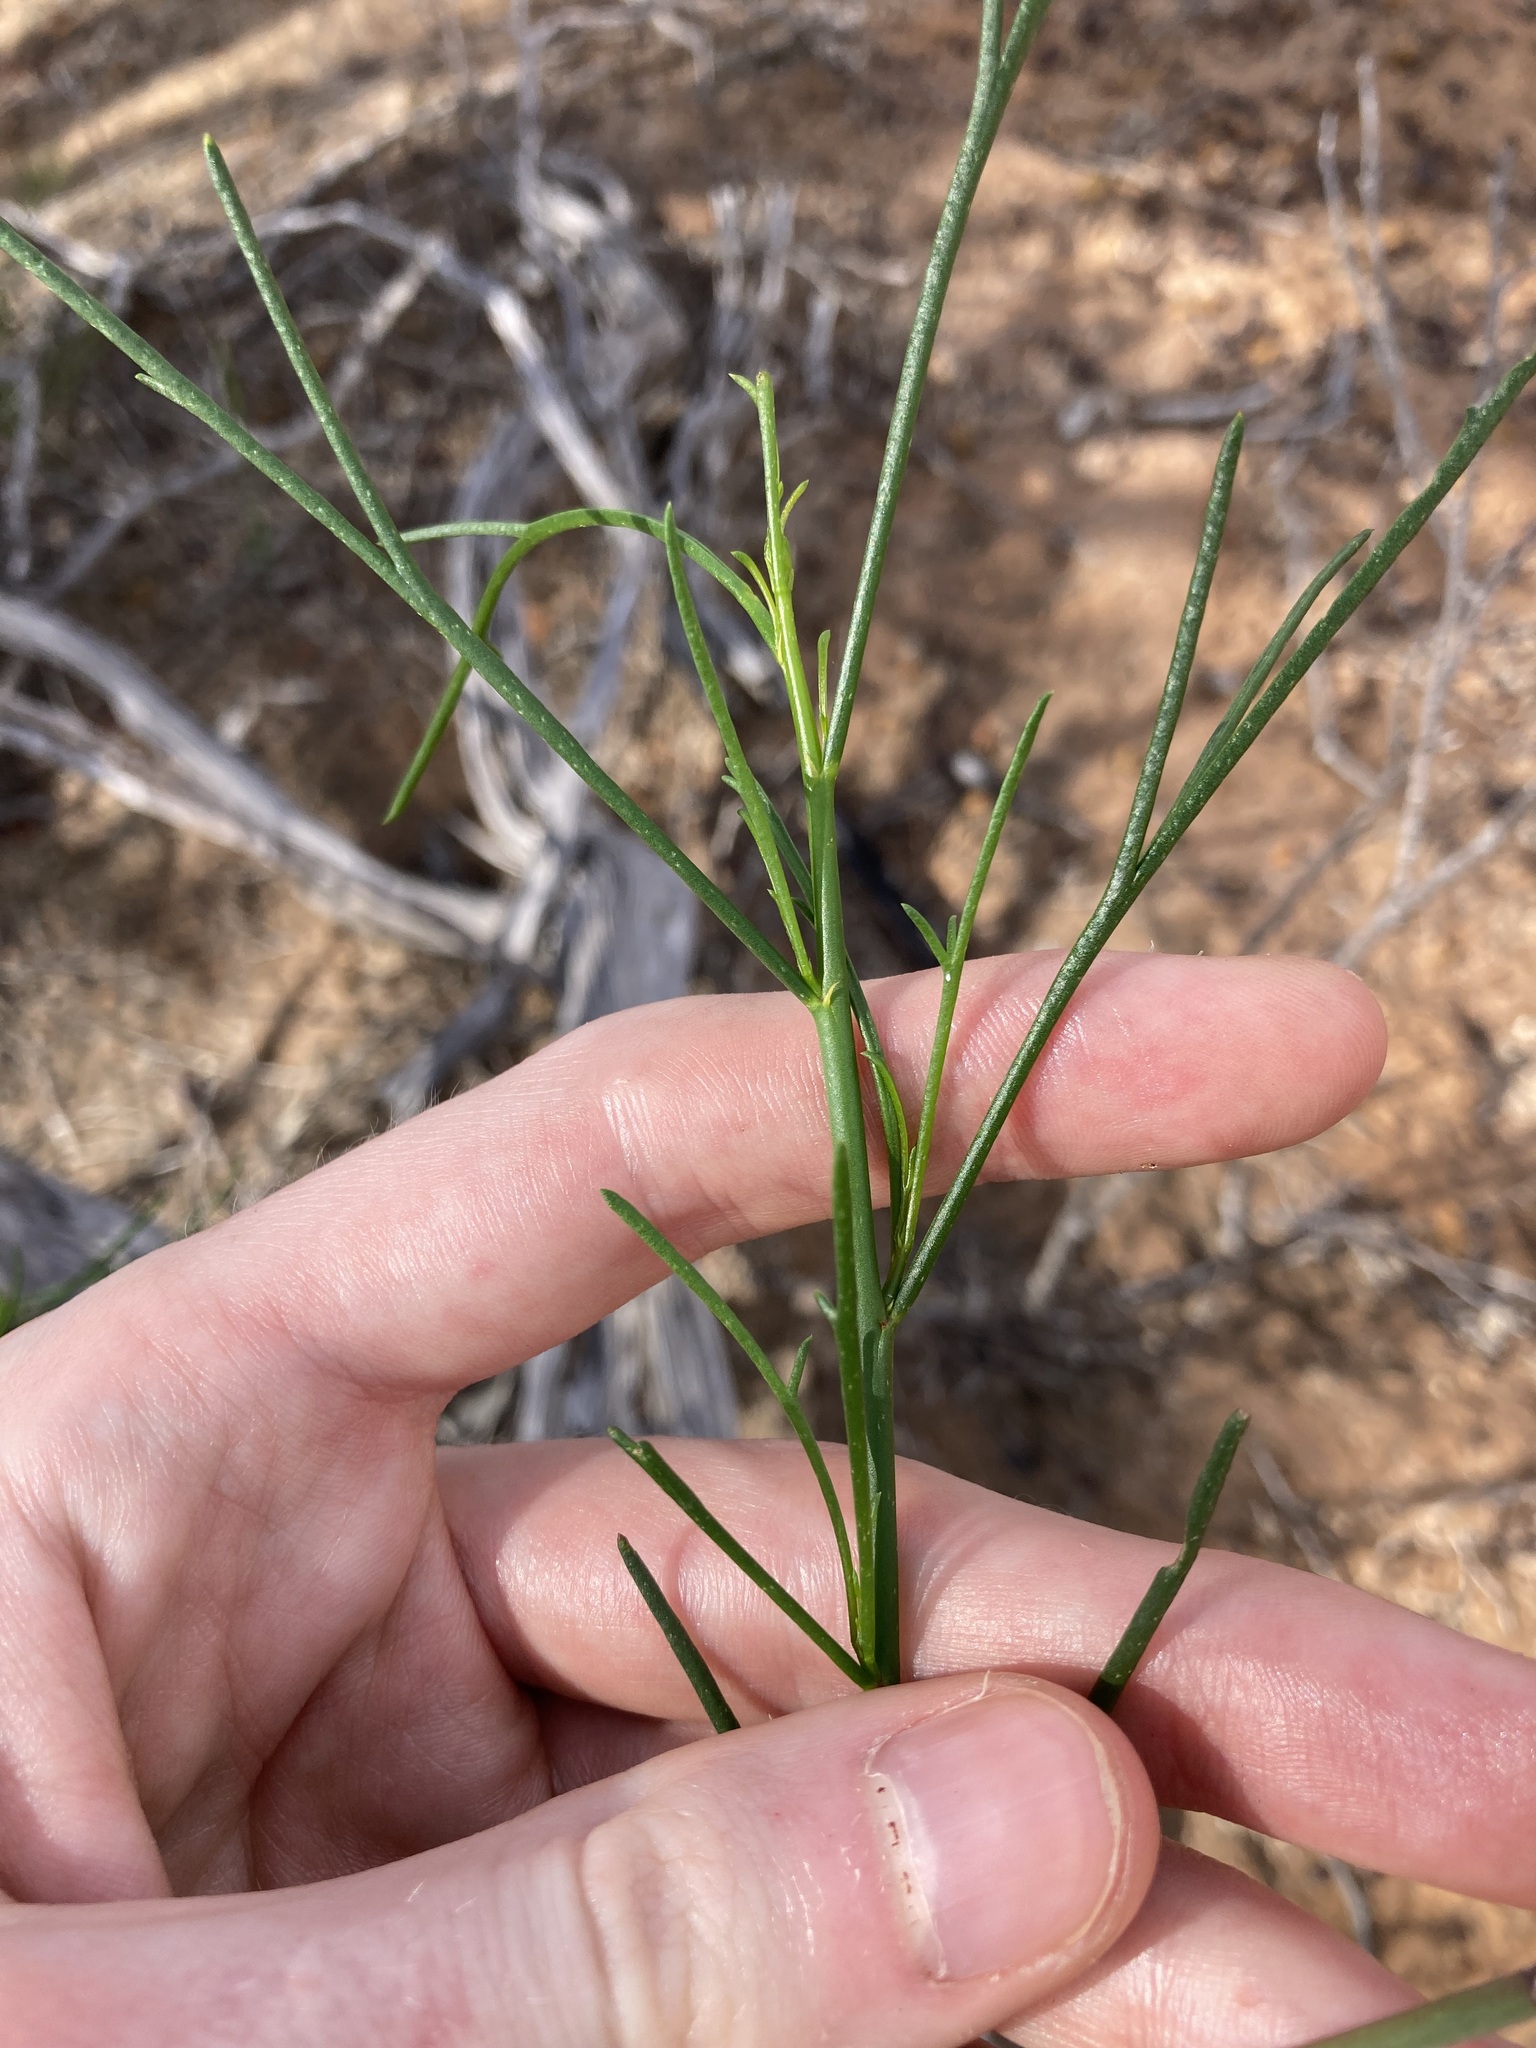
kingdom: Plantae
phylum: Tracheophyta
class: Magnoliopsida
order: Malvales
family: Malvaceae
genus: Hibiscus
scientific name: Hibiscus hakeifolius
